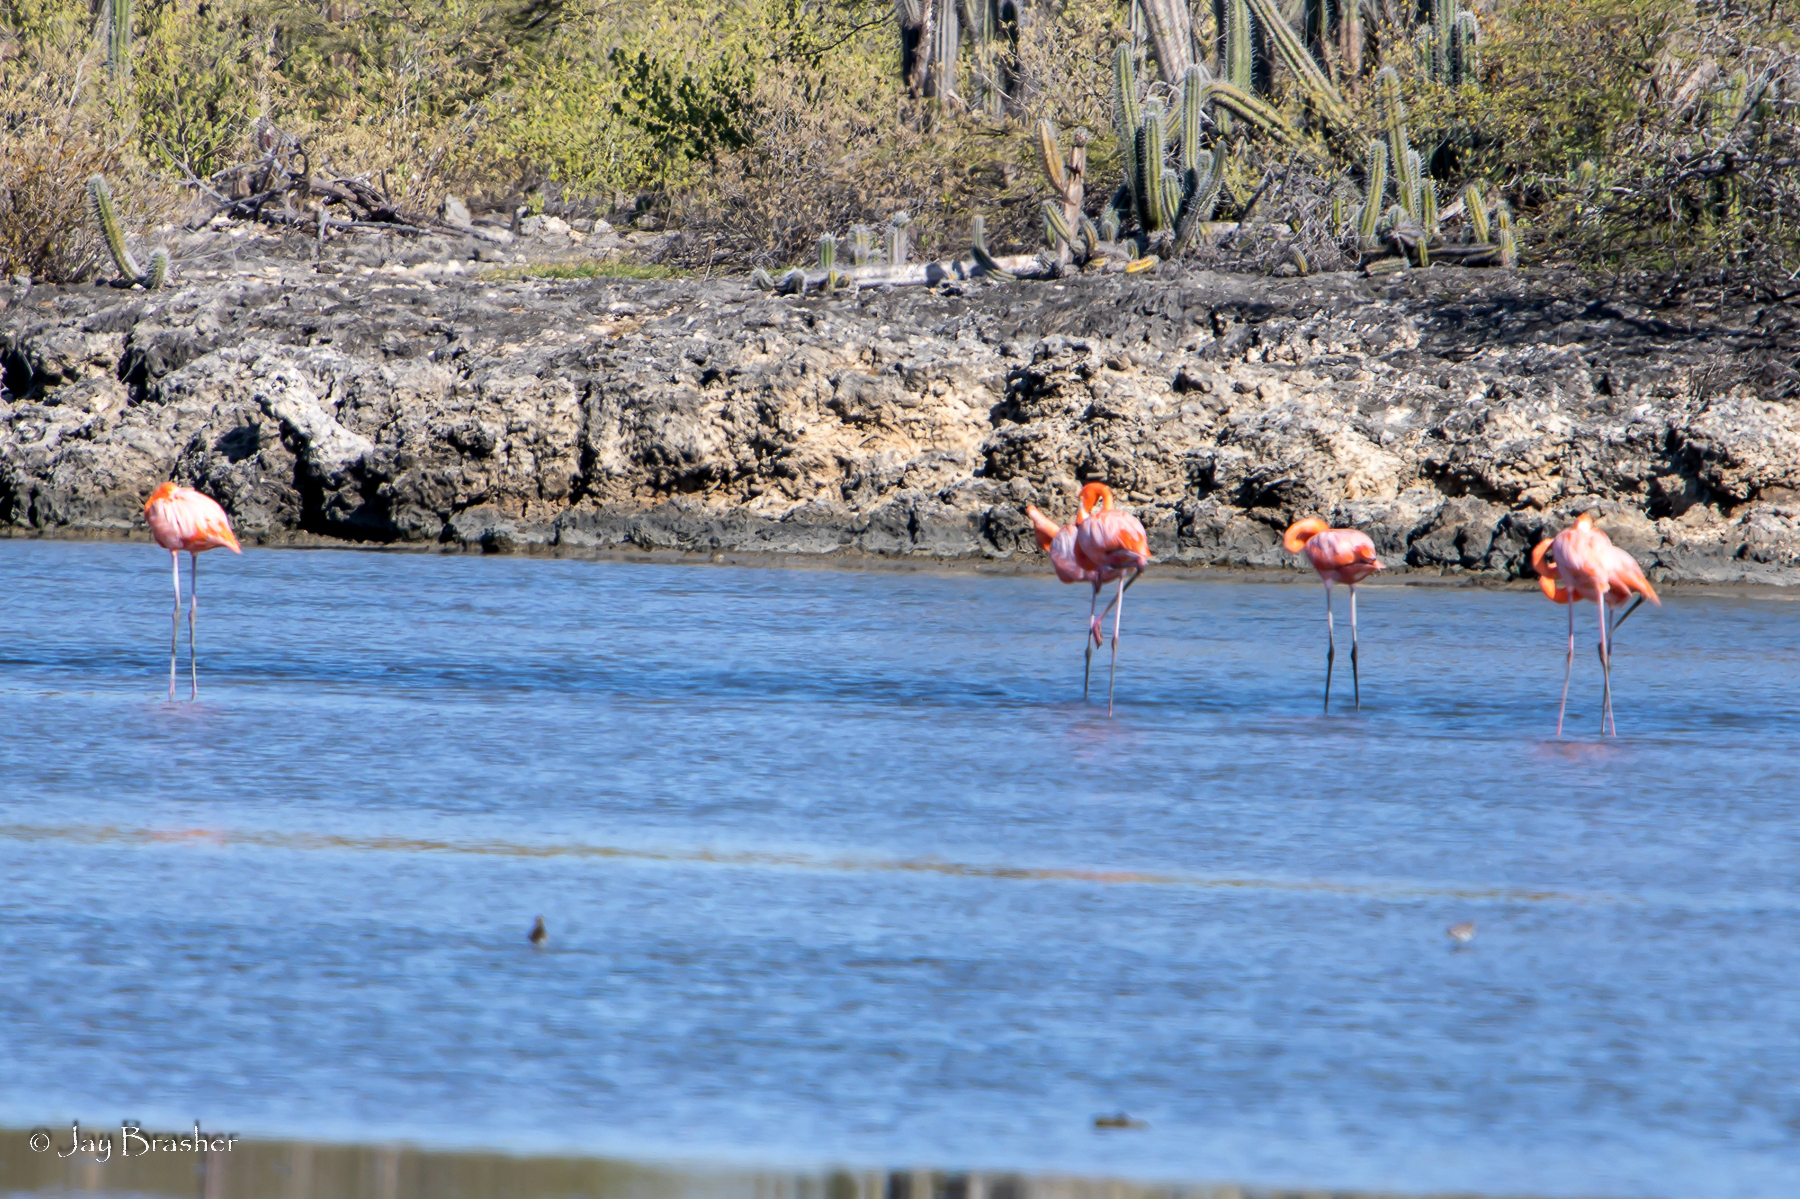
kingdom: Animalia
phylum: Chordata
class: Aves
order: Phoenicopteriformes
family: Phoenicopteridae
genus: Phoenicopterus
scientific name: Phoenicopterus ruber
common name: American flamingo
